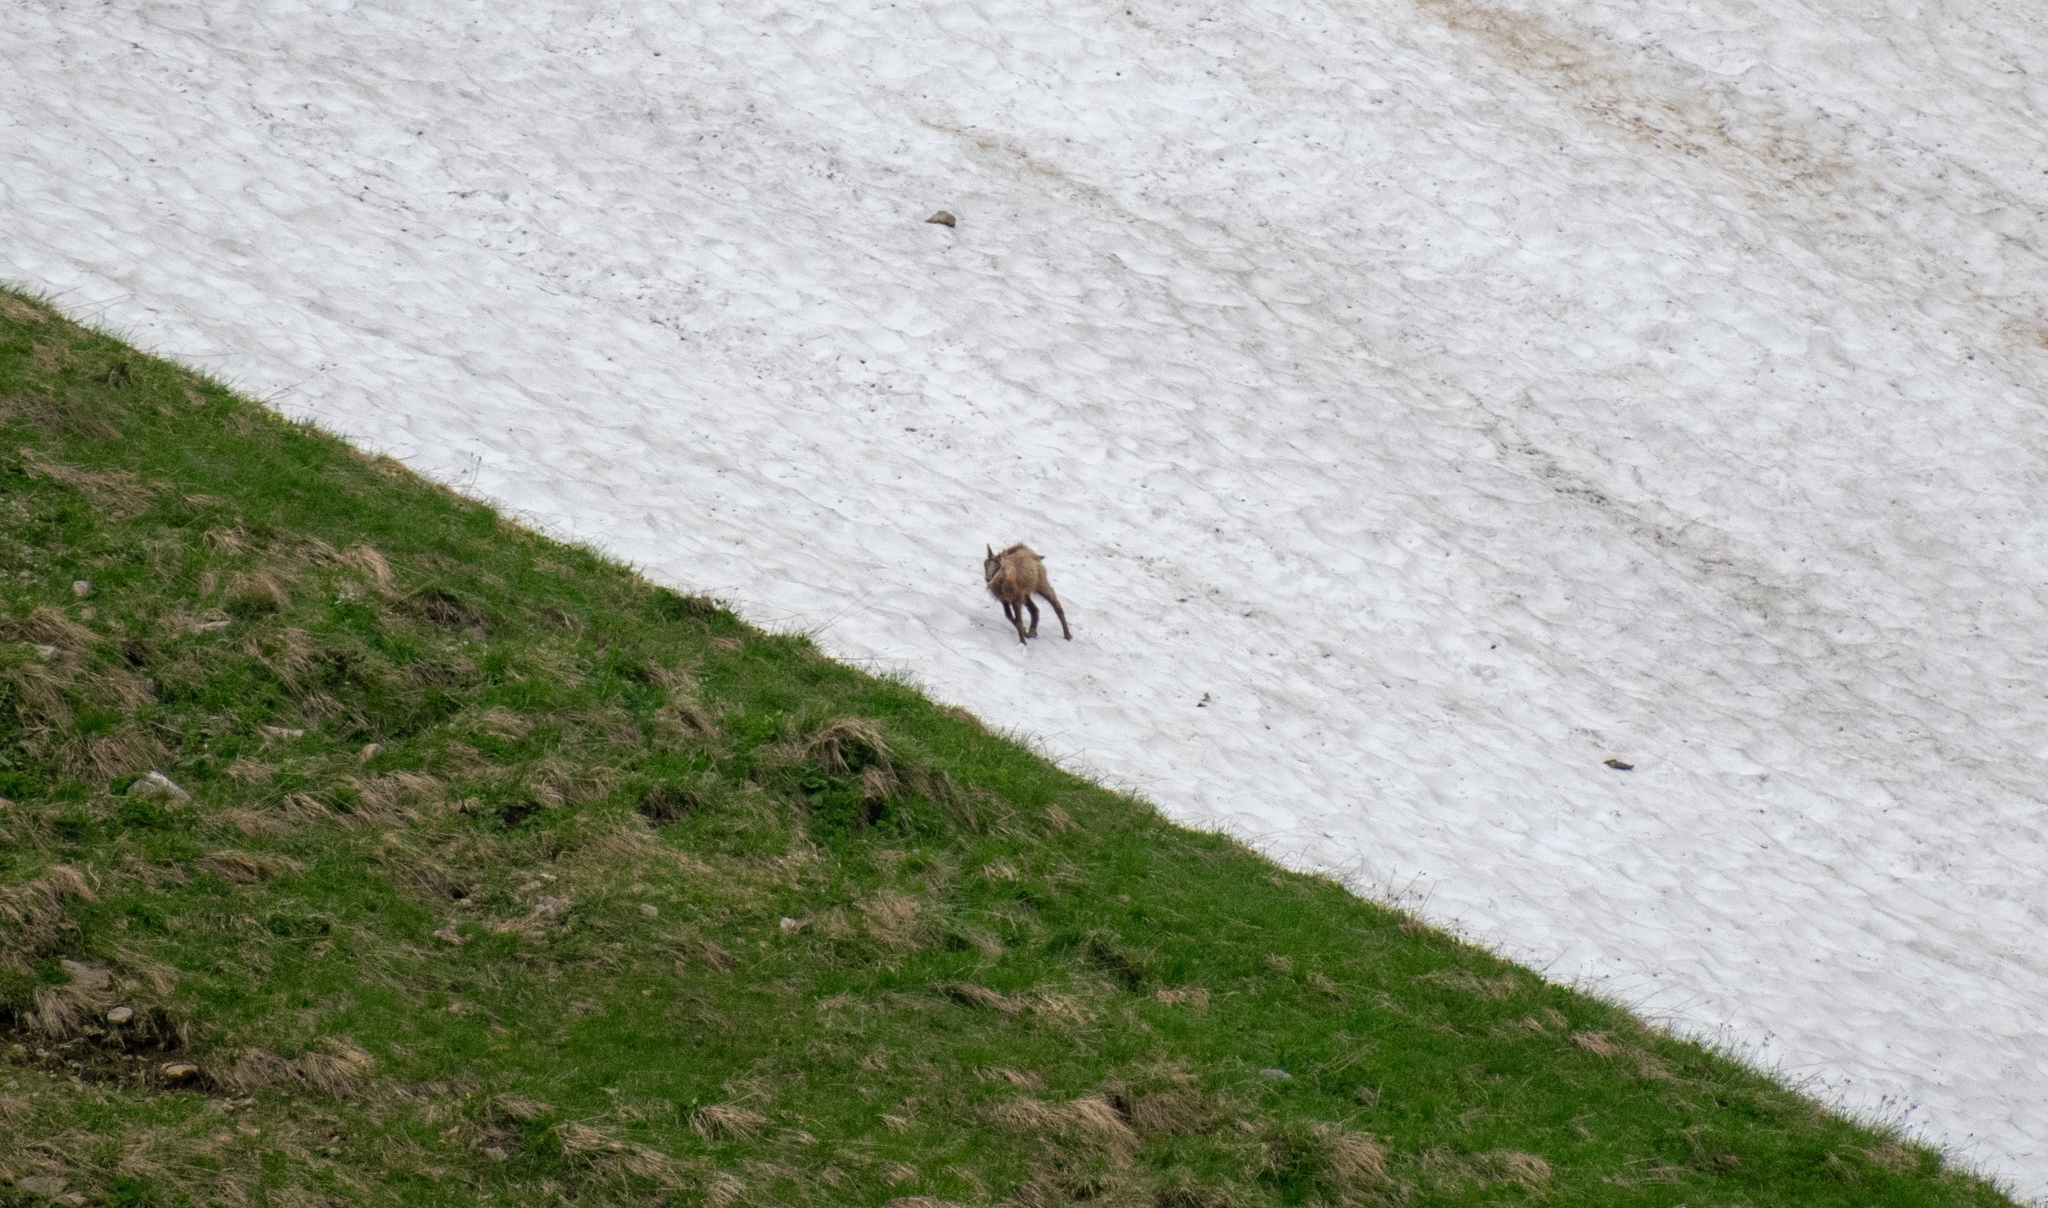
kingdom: Animalia
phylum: Chordata
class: Mammalia
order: Artiodactyla
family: Bovidae
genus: Rupicapra
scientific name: Rupicapra rupicapra
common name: Chamois
